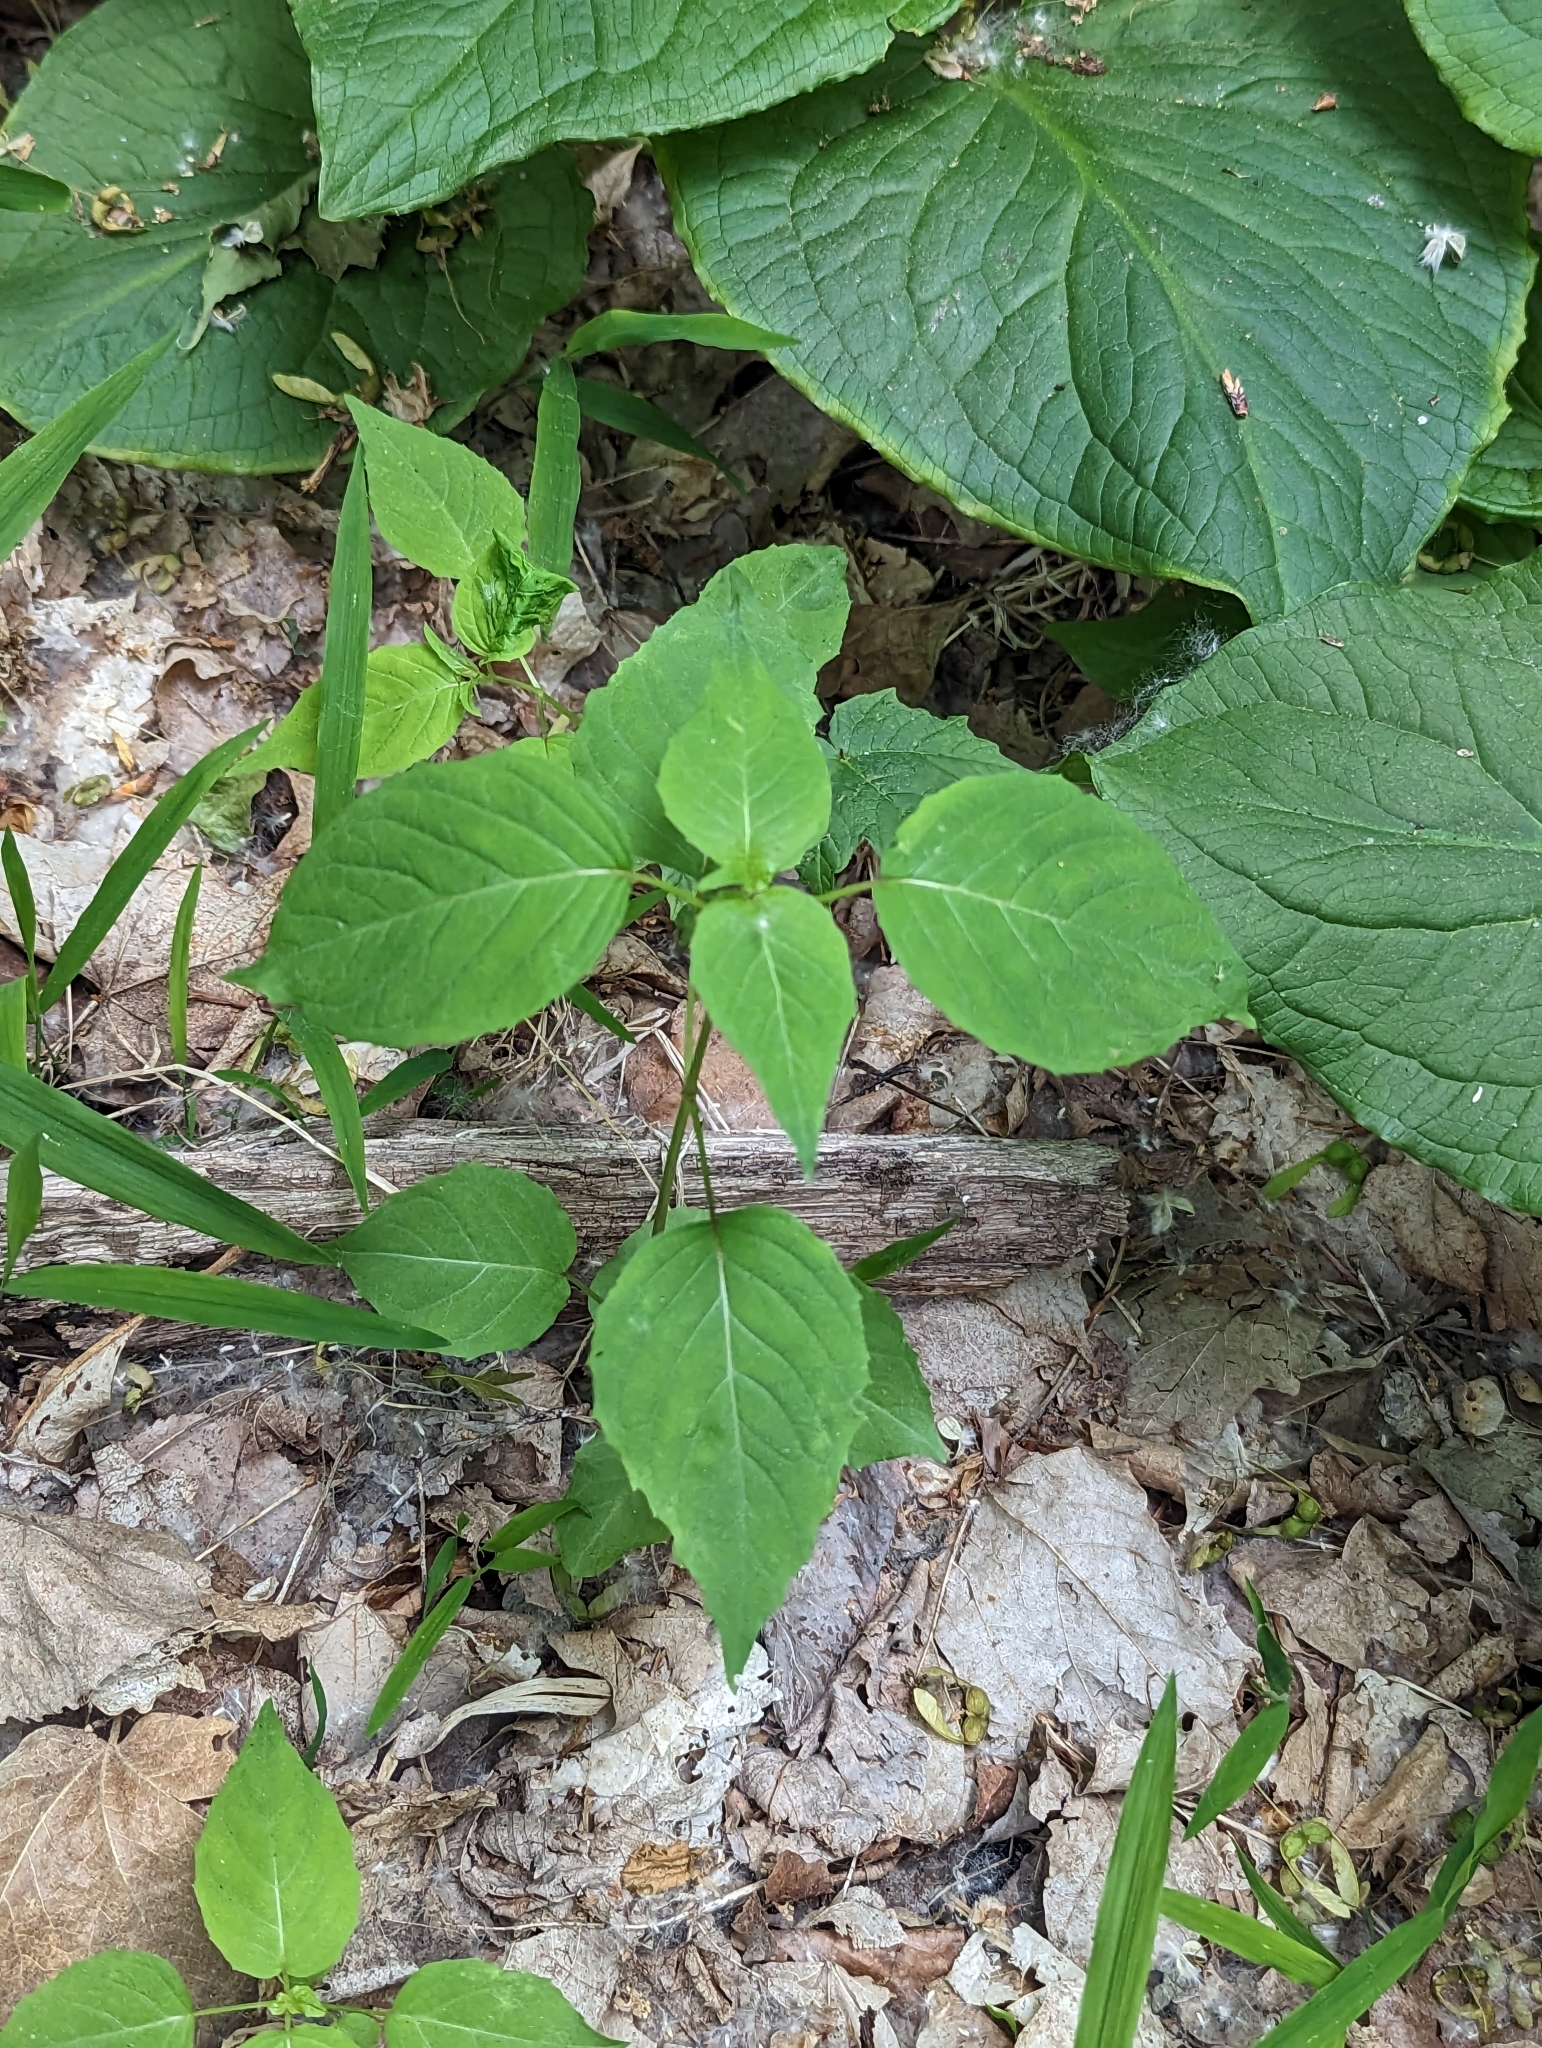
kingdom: Plantae
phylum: Tracheophyta
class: Magnoliopsida
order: Myrtales
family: Onagraceae
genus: Circaea
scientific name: Circaea canadensis
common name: Broad-leaved enchanter's nightshade
